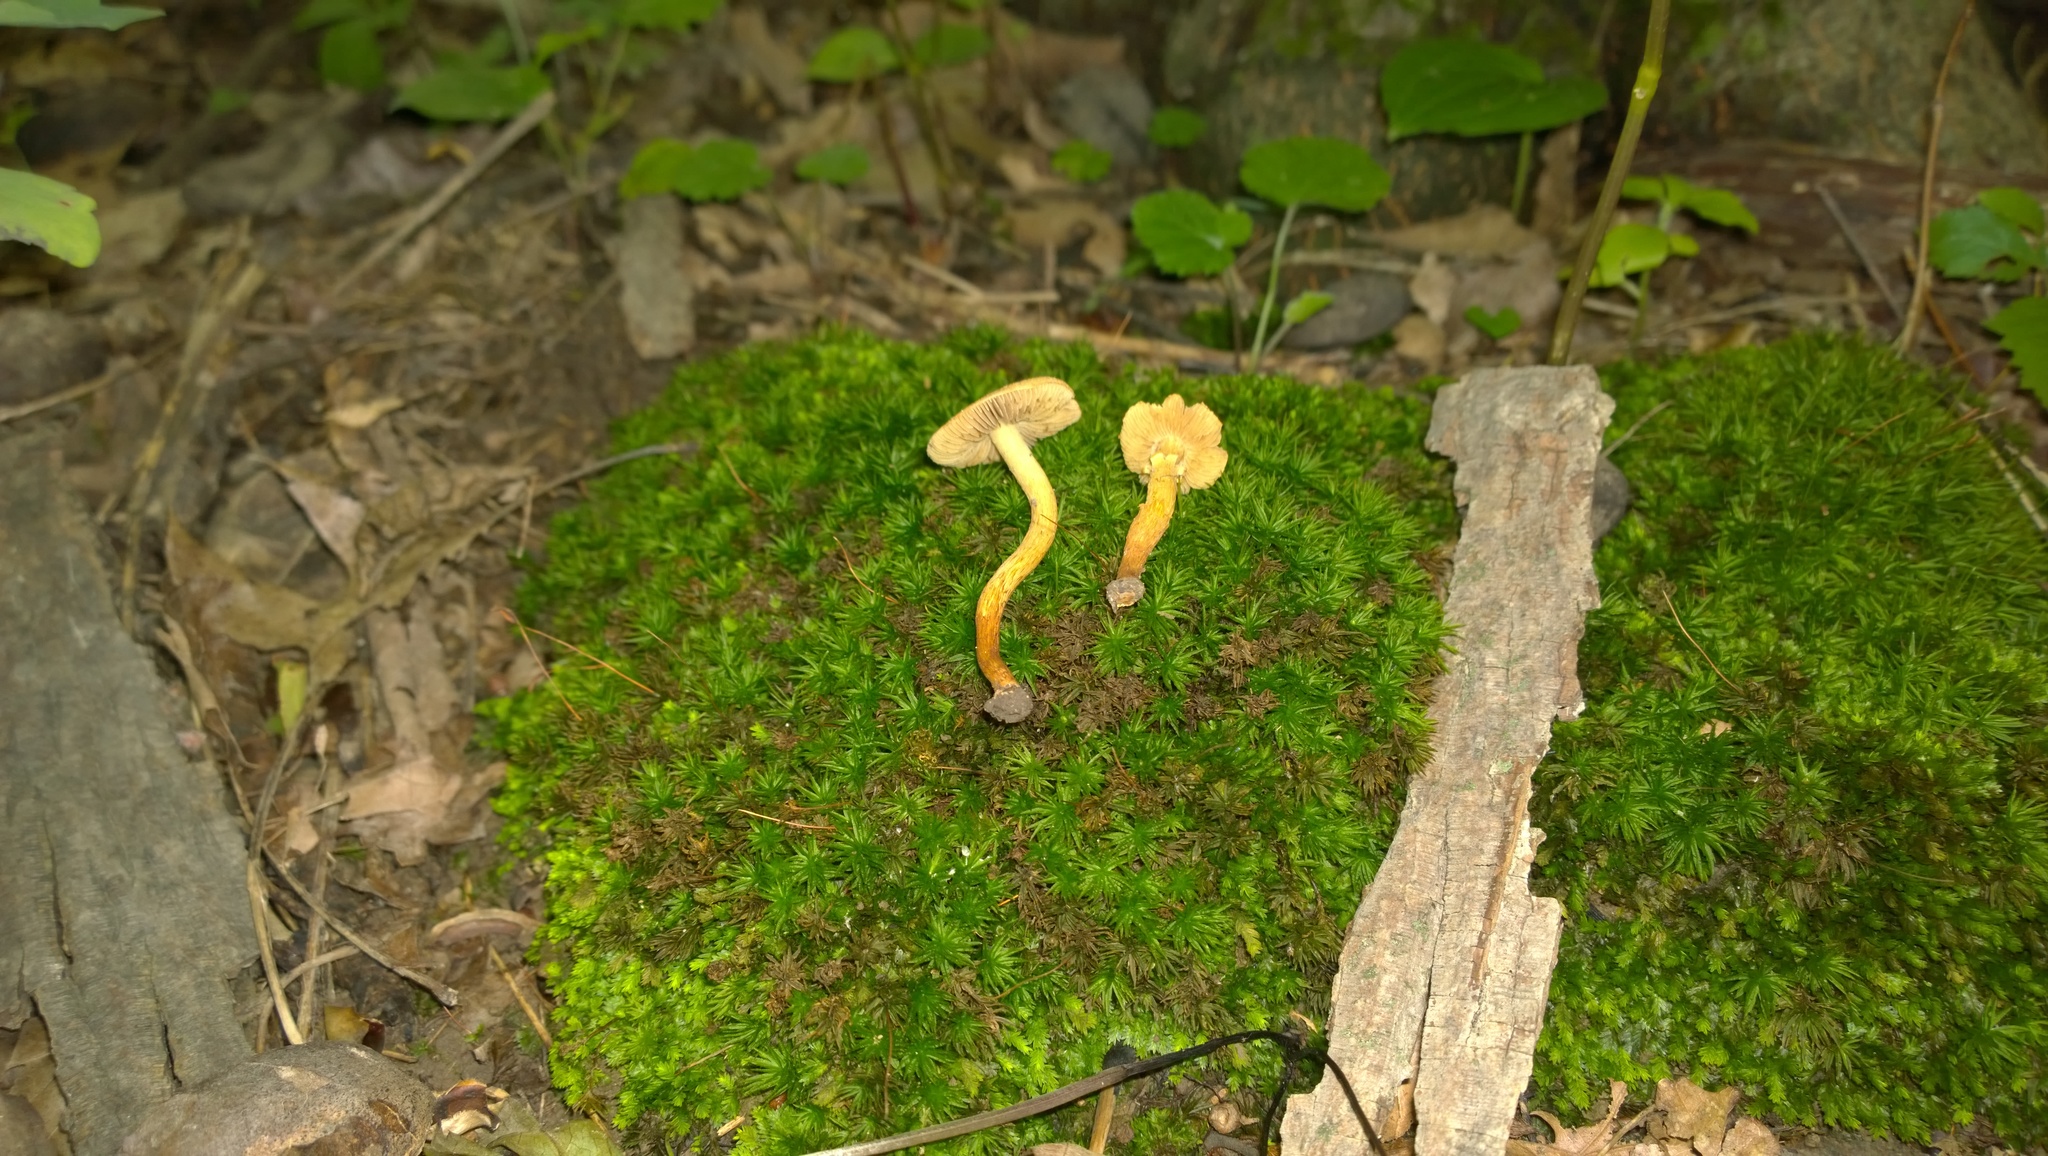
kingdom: Fungi
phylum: Basidiomycota
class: Agaricomycetes
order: Agaricales
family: Inocybaceae
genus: Mallocybe
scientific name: Mallocybe unicolor
